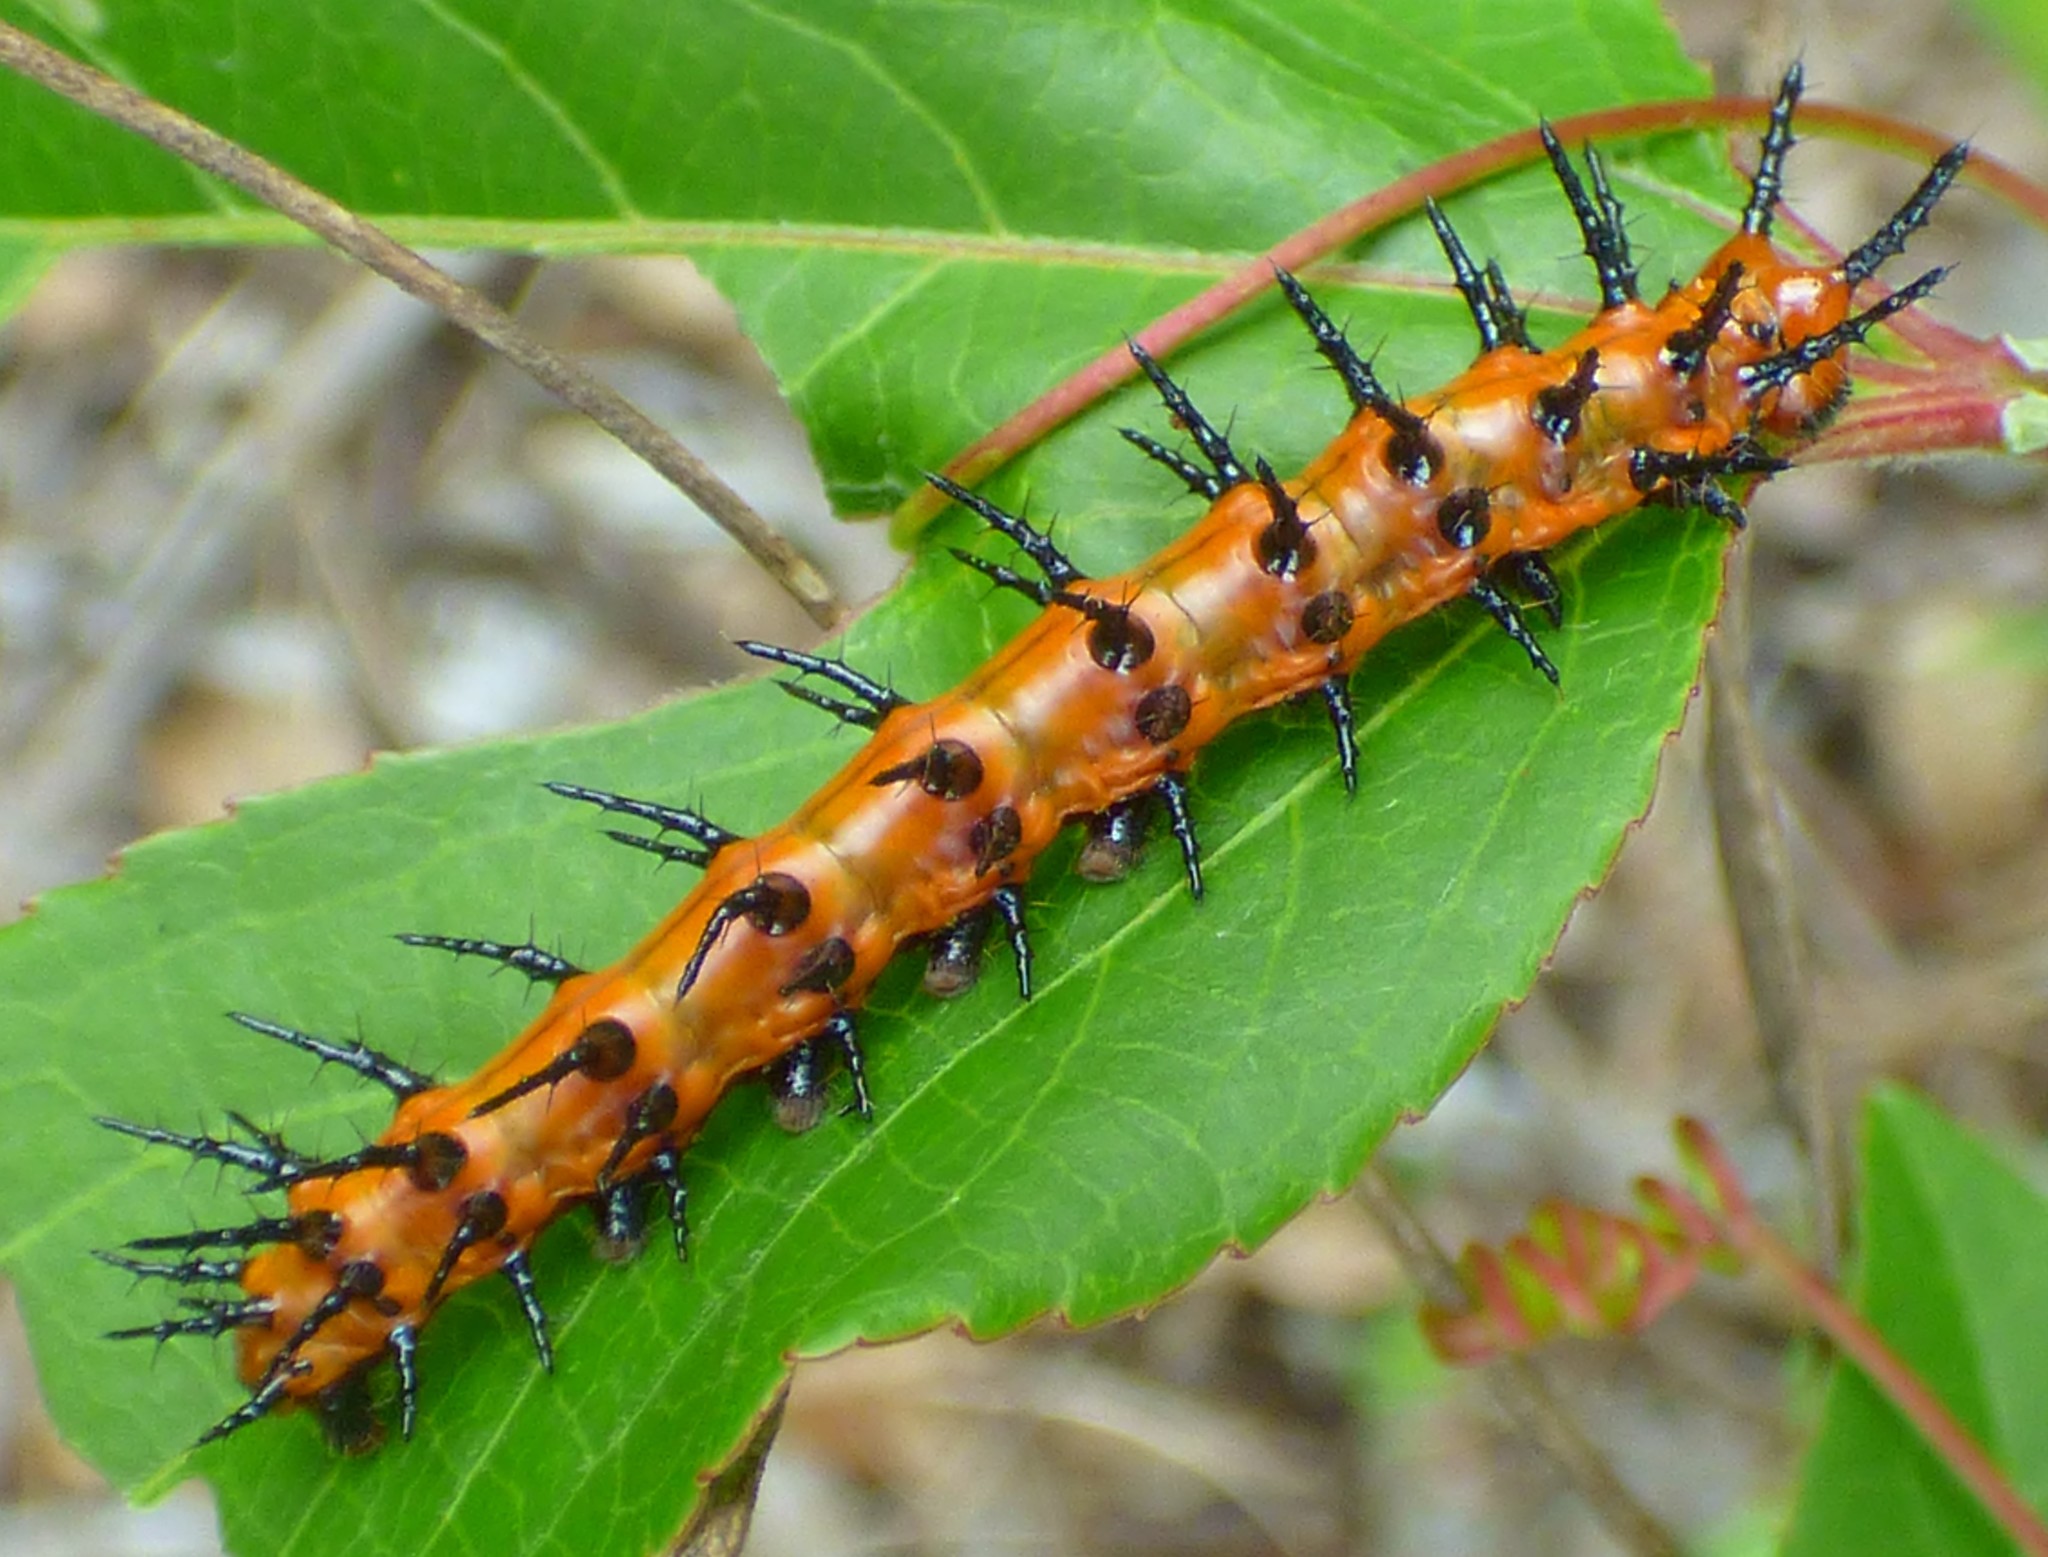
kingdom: Animalia
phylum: Arthropoda
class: Insecta
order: Lepidoptera
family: Nymphalidae
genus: Dione
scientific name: Dione vanillae
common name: Gulf fritillary
